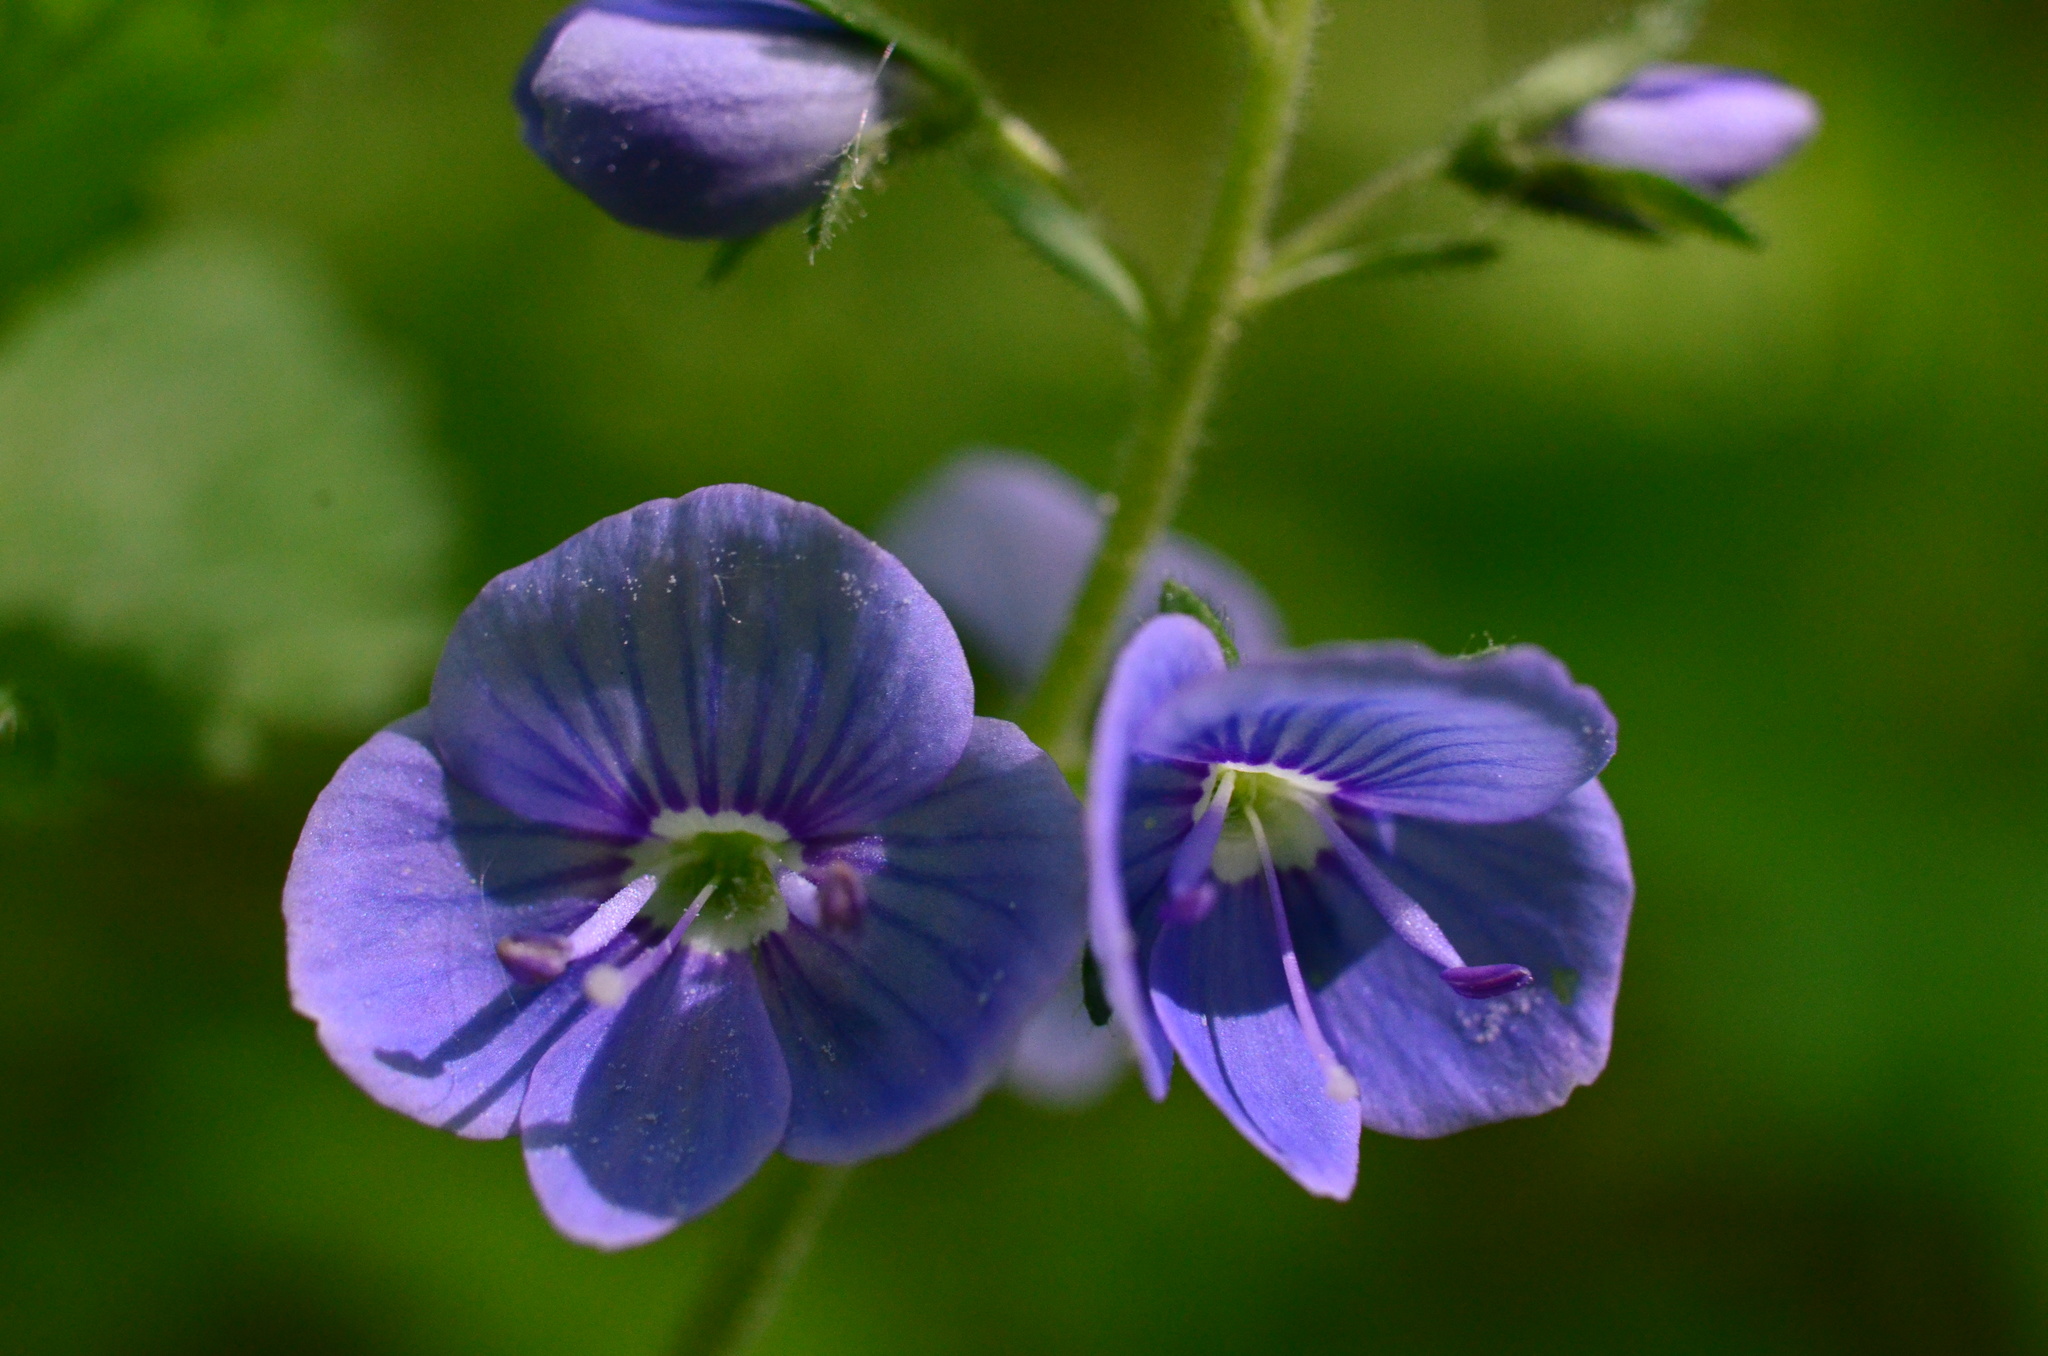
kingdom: Plantae
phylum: Tracheophyta
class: Magnoliopsida
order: Lamiales
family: Plantaginaceae
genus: Veronica
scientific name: Veronica chamaedrys
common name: Germander speedwell
